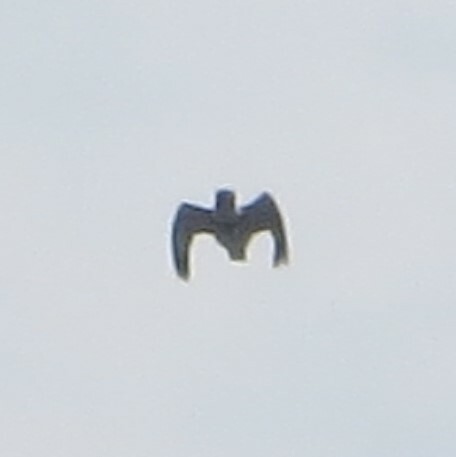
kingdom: Animalia
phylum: Chordata
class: Aves
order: Coraciiformes
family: Alcedinidae
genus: Megaceryle
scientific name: Megaceryle alcyon
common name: Belted kingfisher
